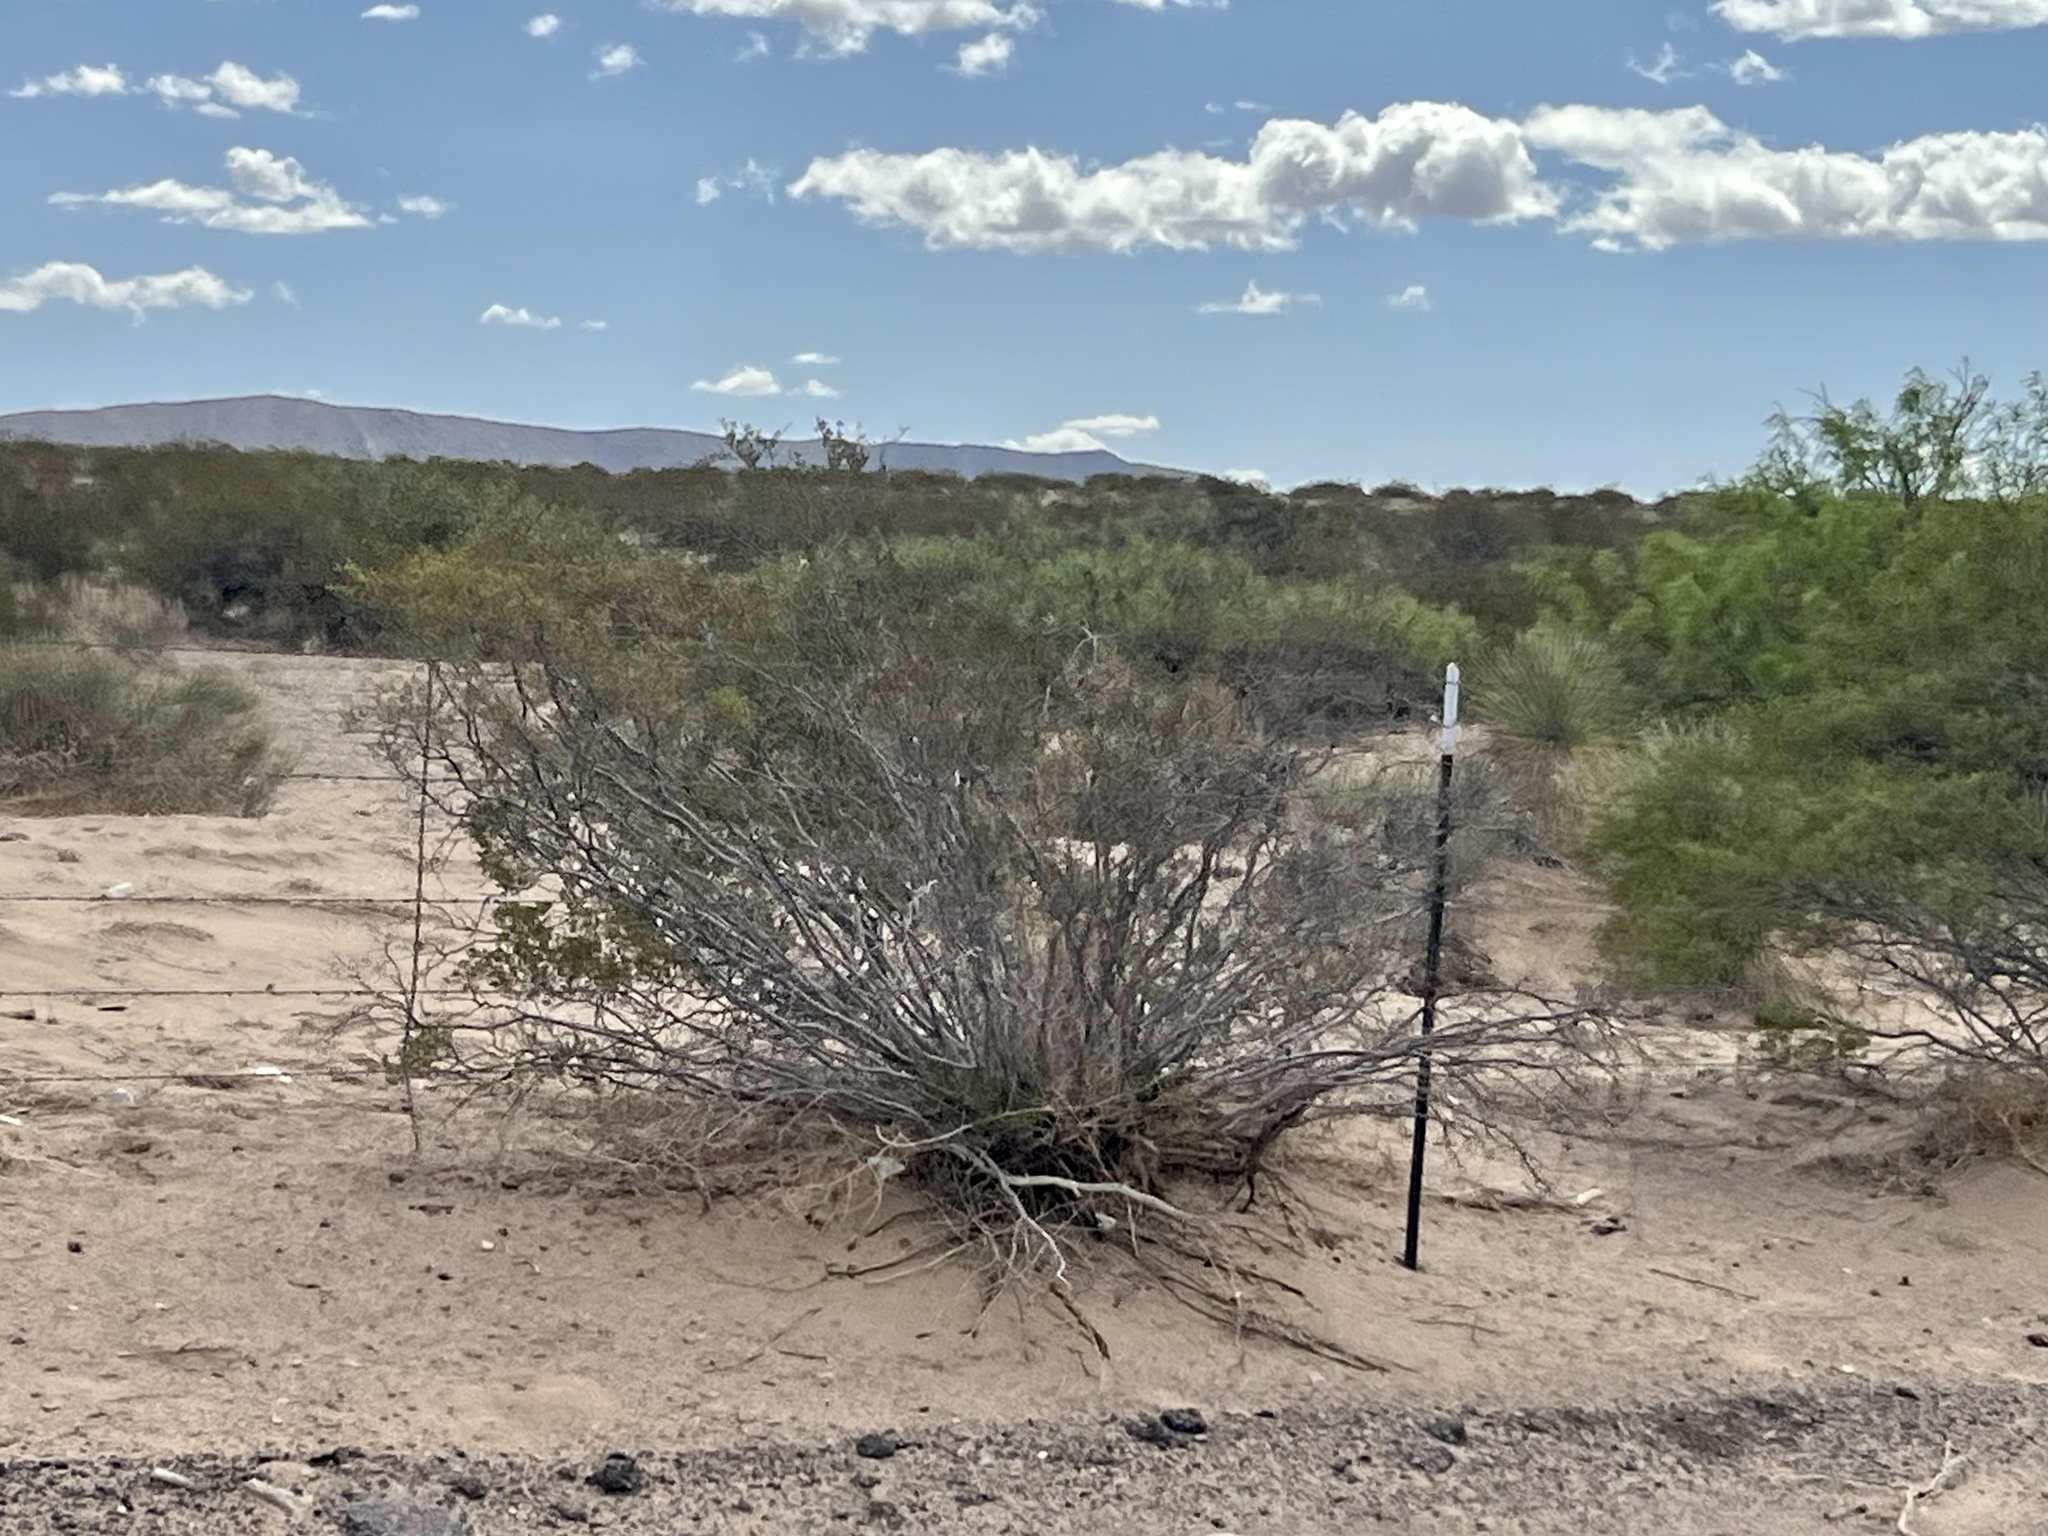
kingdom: Plantae
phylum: Tracheophyta
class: Magnoliopsida
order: Zygophyllales
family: Zygophyllaceae
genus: Larrea
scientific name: Larrea tridentata
